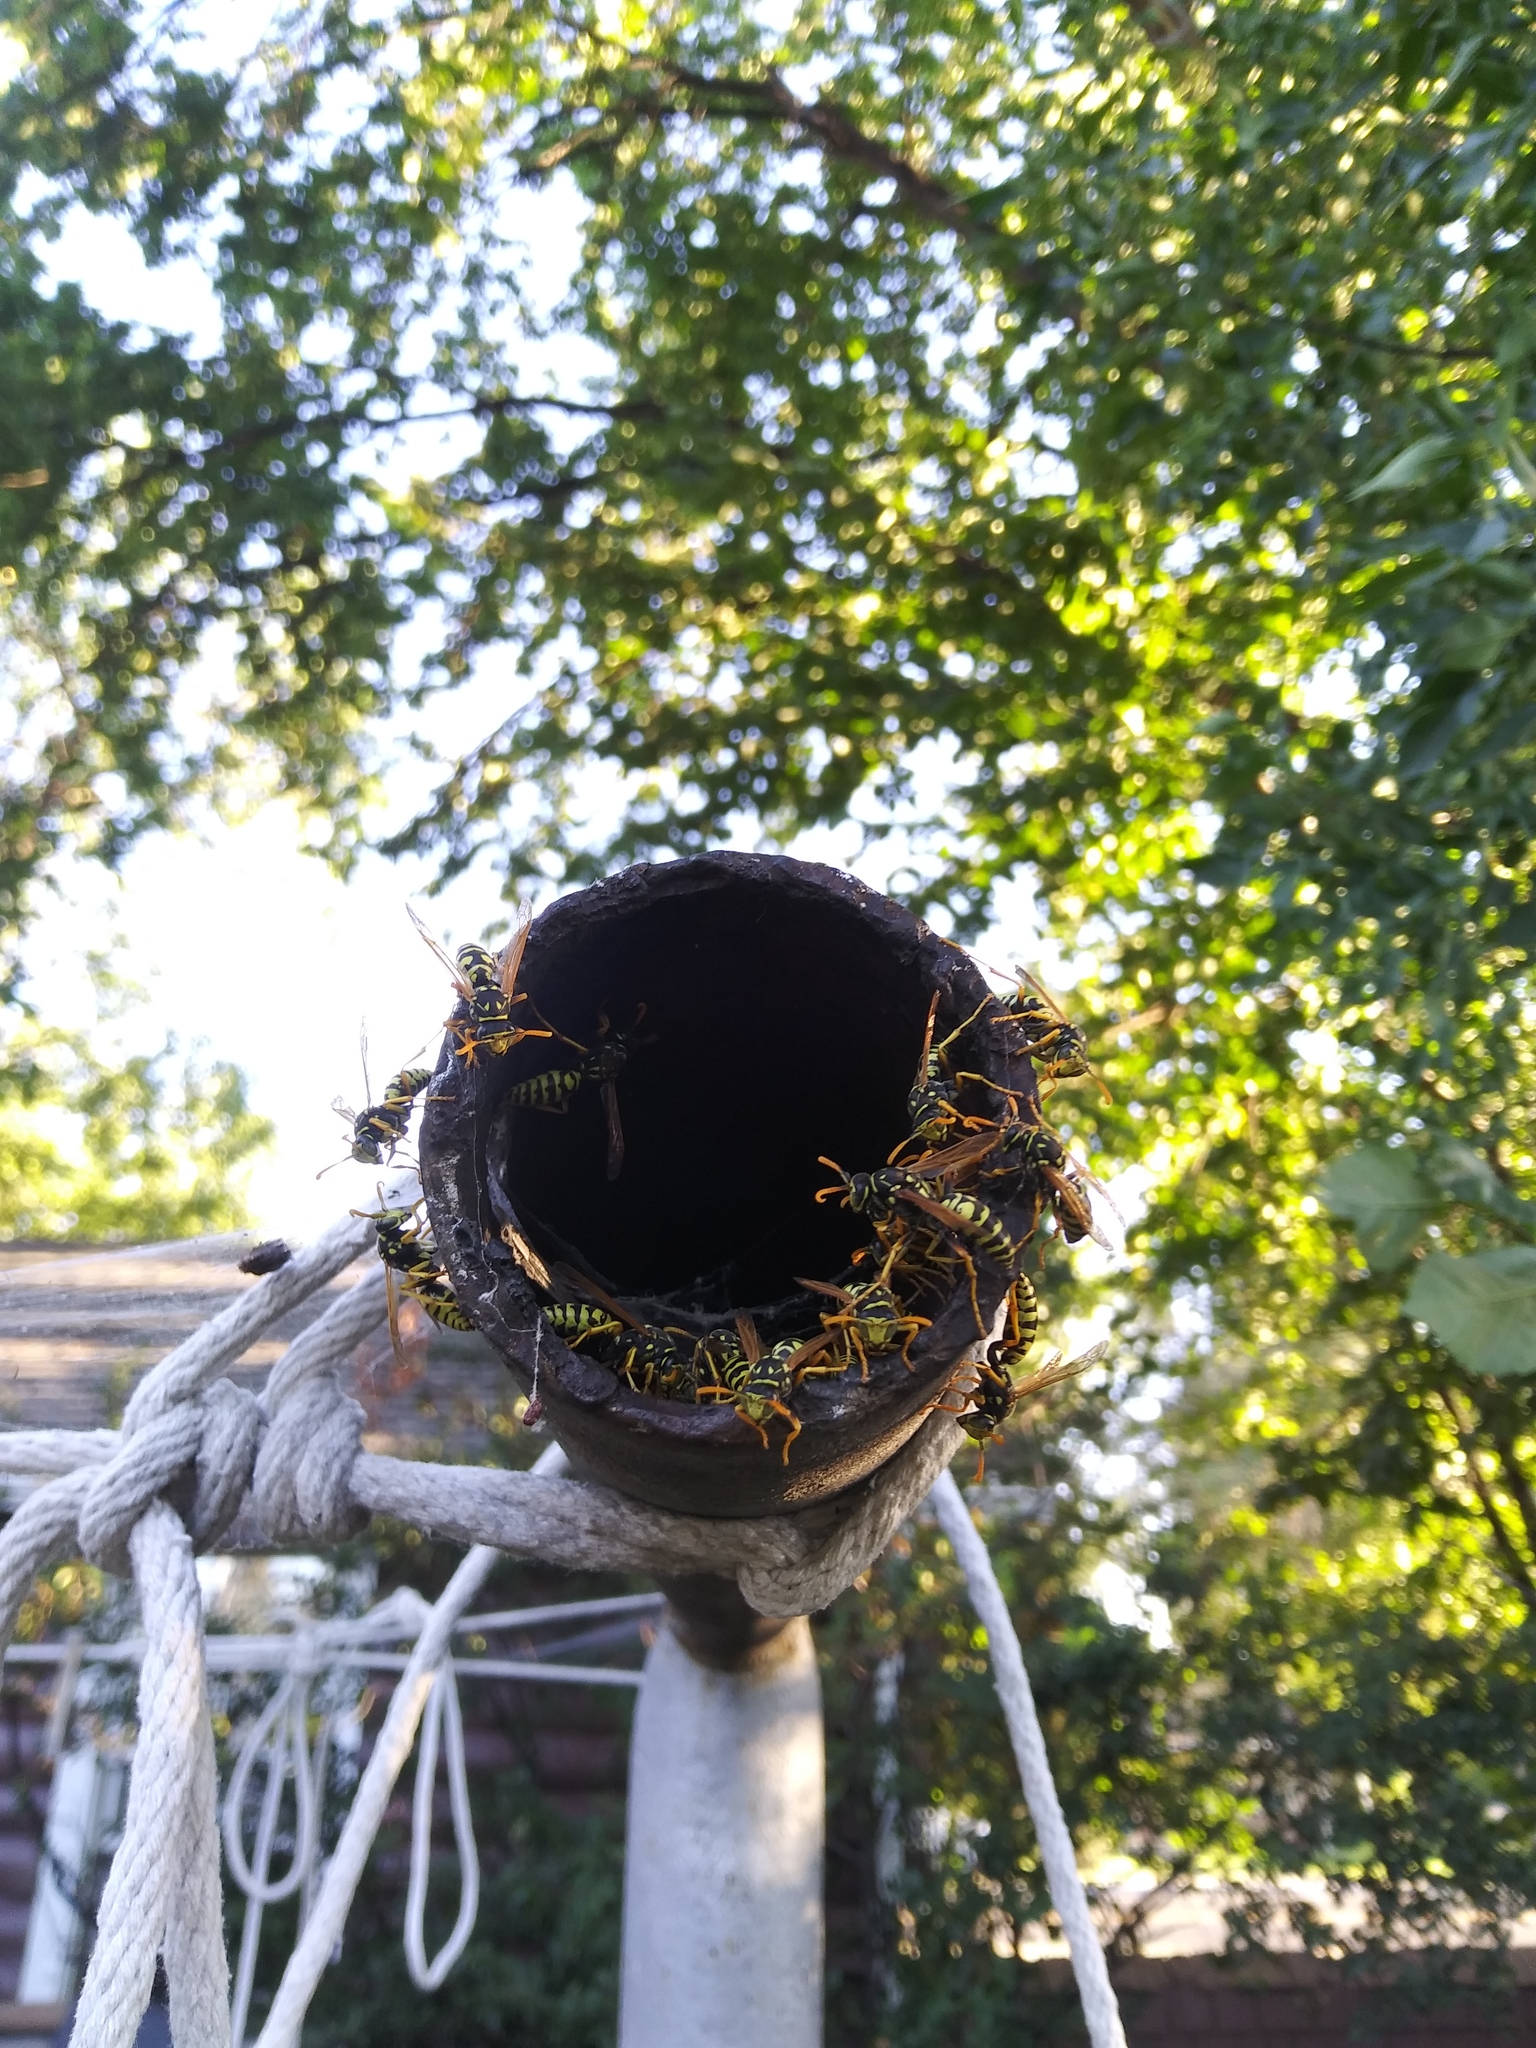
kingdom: Animalia
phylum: Arthropoda
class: Insecta
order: Hymenoptera
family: Eumenidae
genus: Polistes
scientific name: Polistes dominula
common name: Paper wasp
